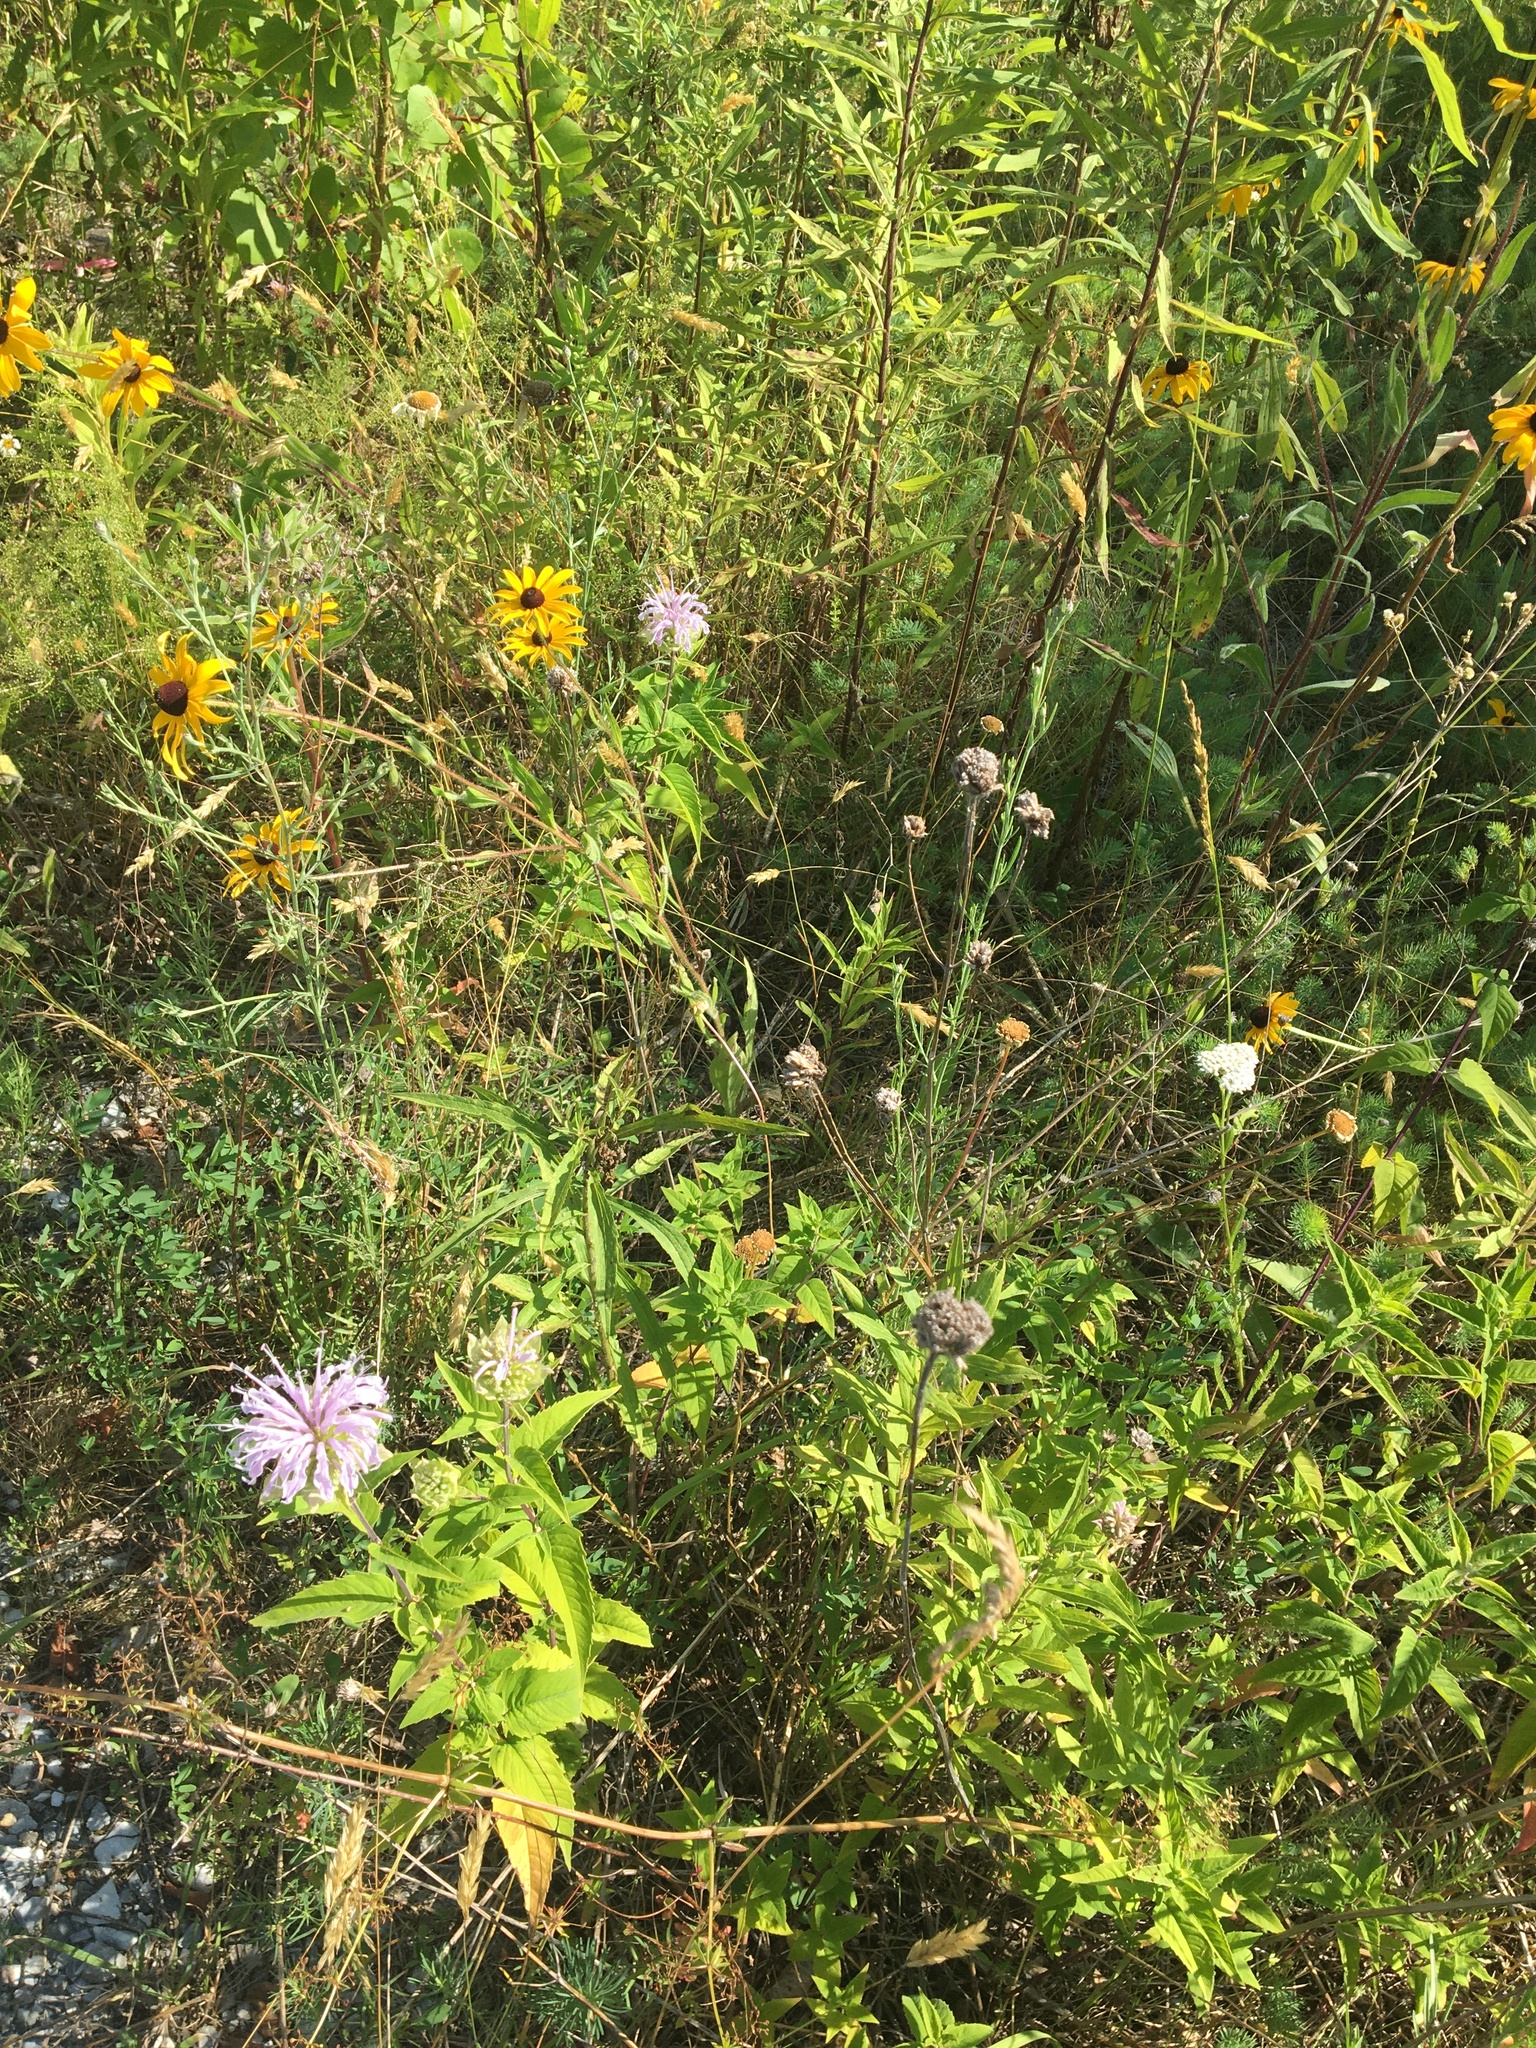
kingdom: Plantae
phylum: Tracheophyta
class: Magnoliopsida
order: Lamiales
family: Lamiaceae
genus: Monarda
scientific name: Monarda fistulosa
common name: Purple beebalm
